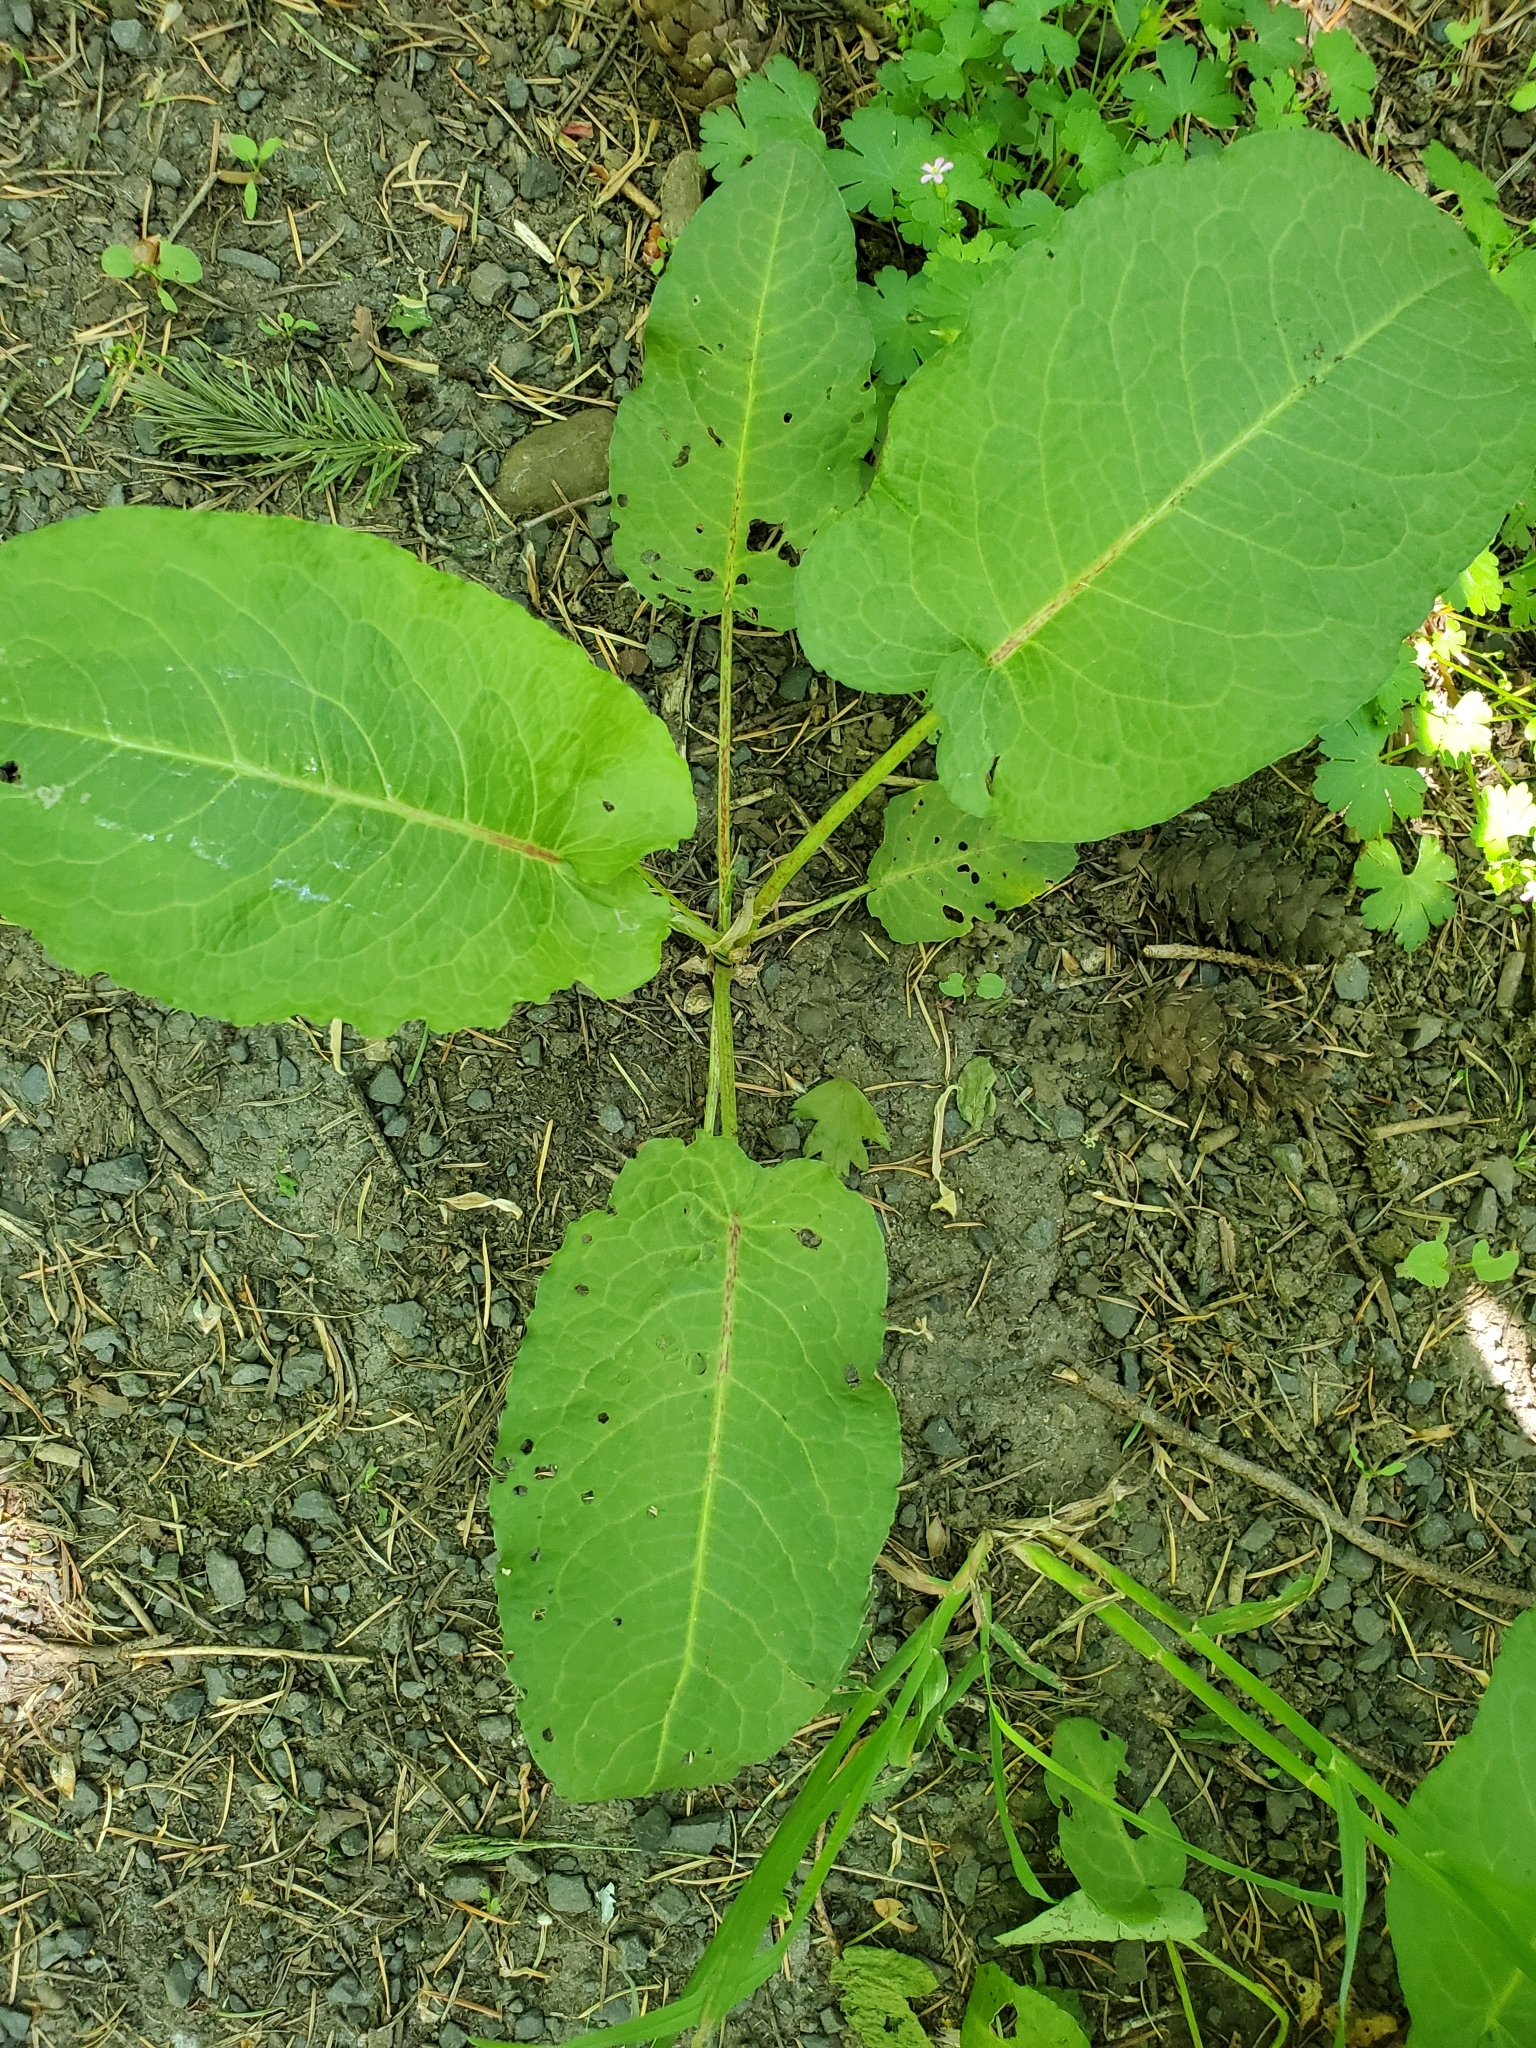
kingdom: Plantae
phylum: Tracheophyta
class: Magnoliopsida
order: Caryophyllales
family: Polygonaceae
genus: Rumex
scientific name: Rumex obtusifolius
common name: Bitter dock
